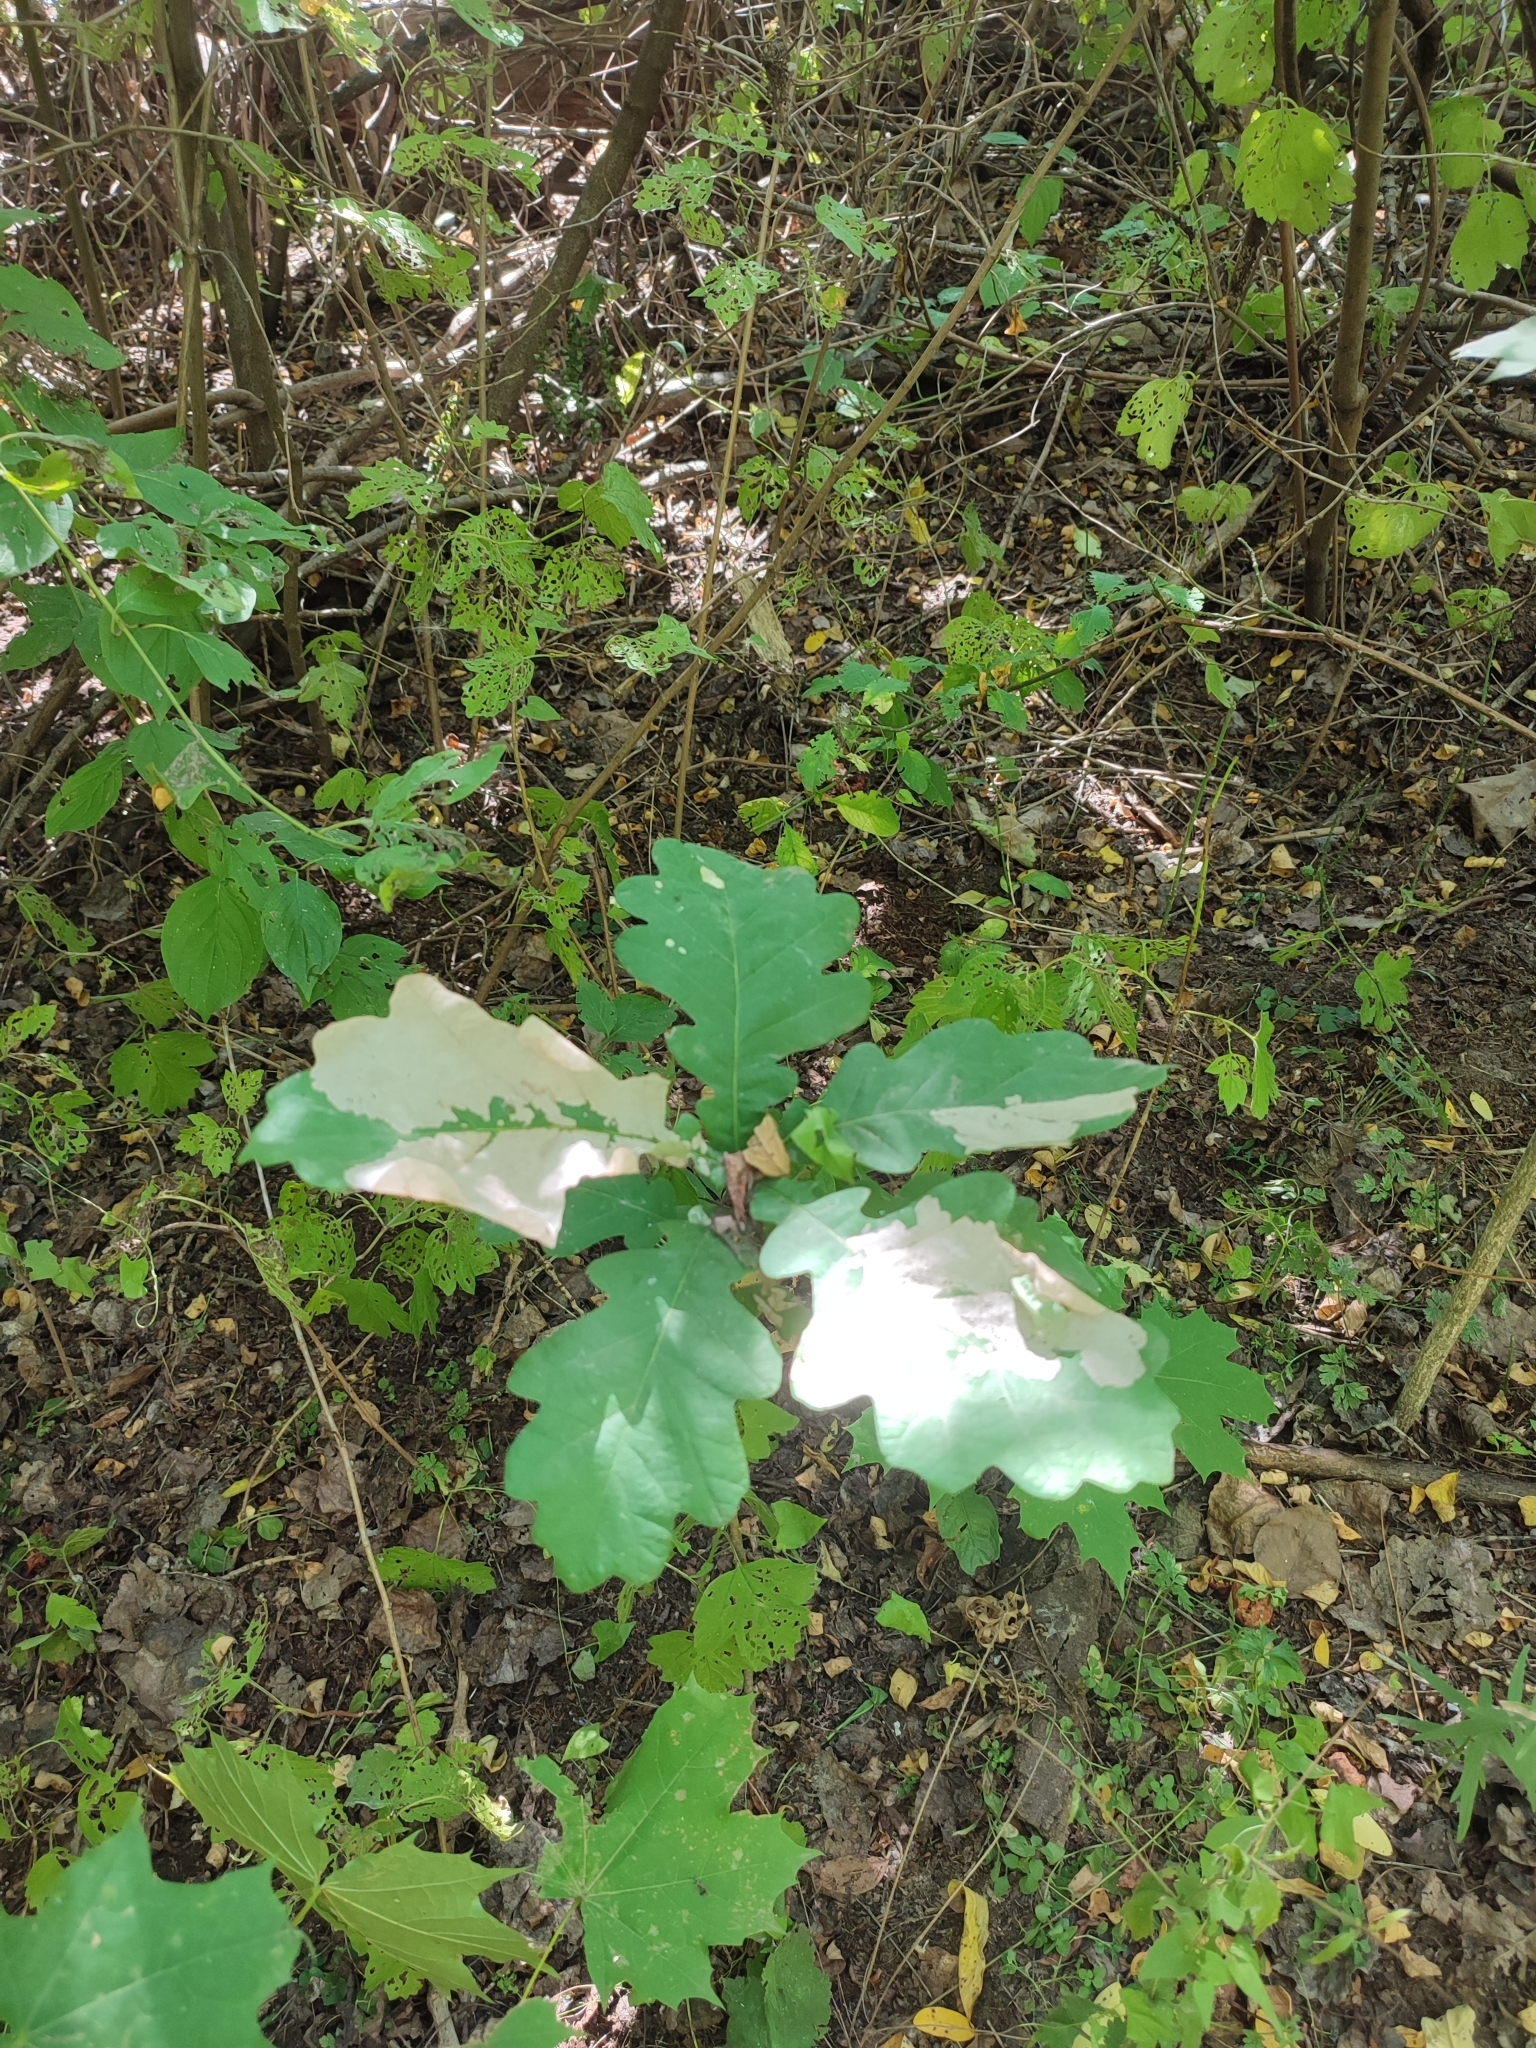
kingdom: Plantae
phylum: Tracheophyta
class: Magnoliopsida
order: Fagales
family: Fagaceae
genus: Quercus
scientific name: Quercus robur
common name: Pedunculate oak
